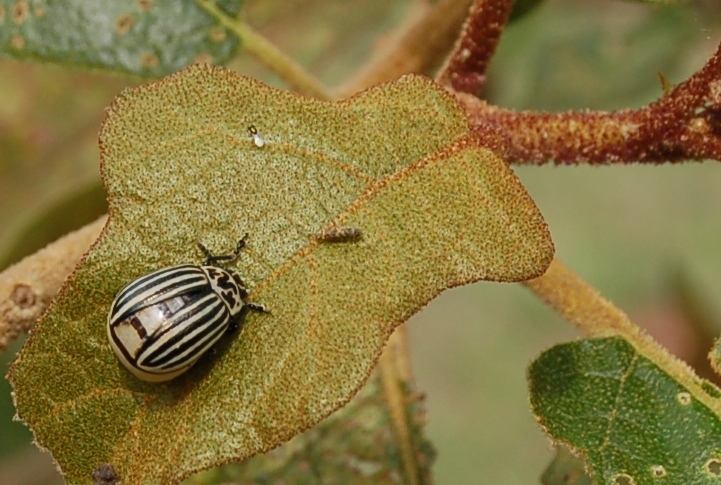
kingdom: Animalia
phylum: Arthropoda
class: Insecta
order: Coleoptera
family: Chrysomelidae
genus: Leptinotarsa
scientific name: Leptinotarsa
